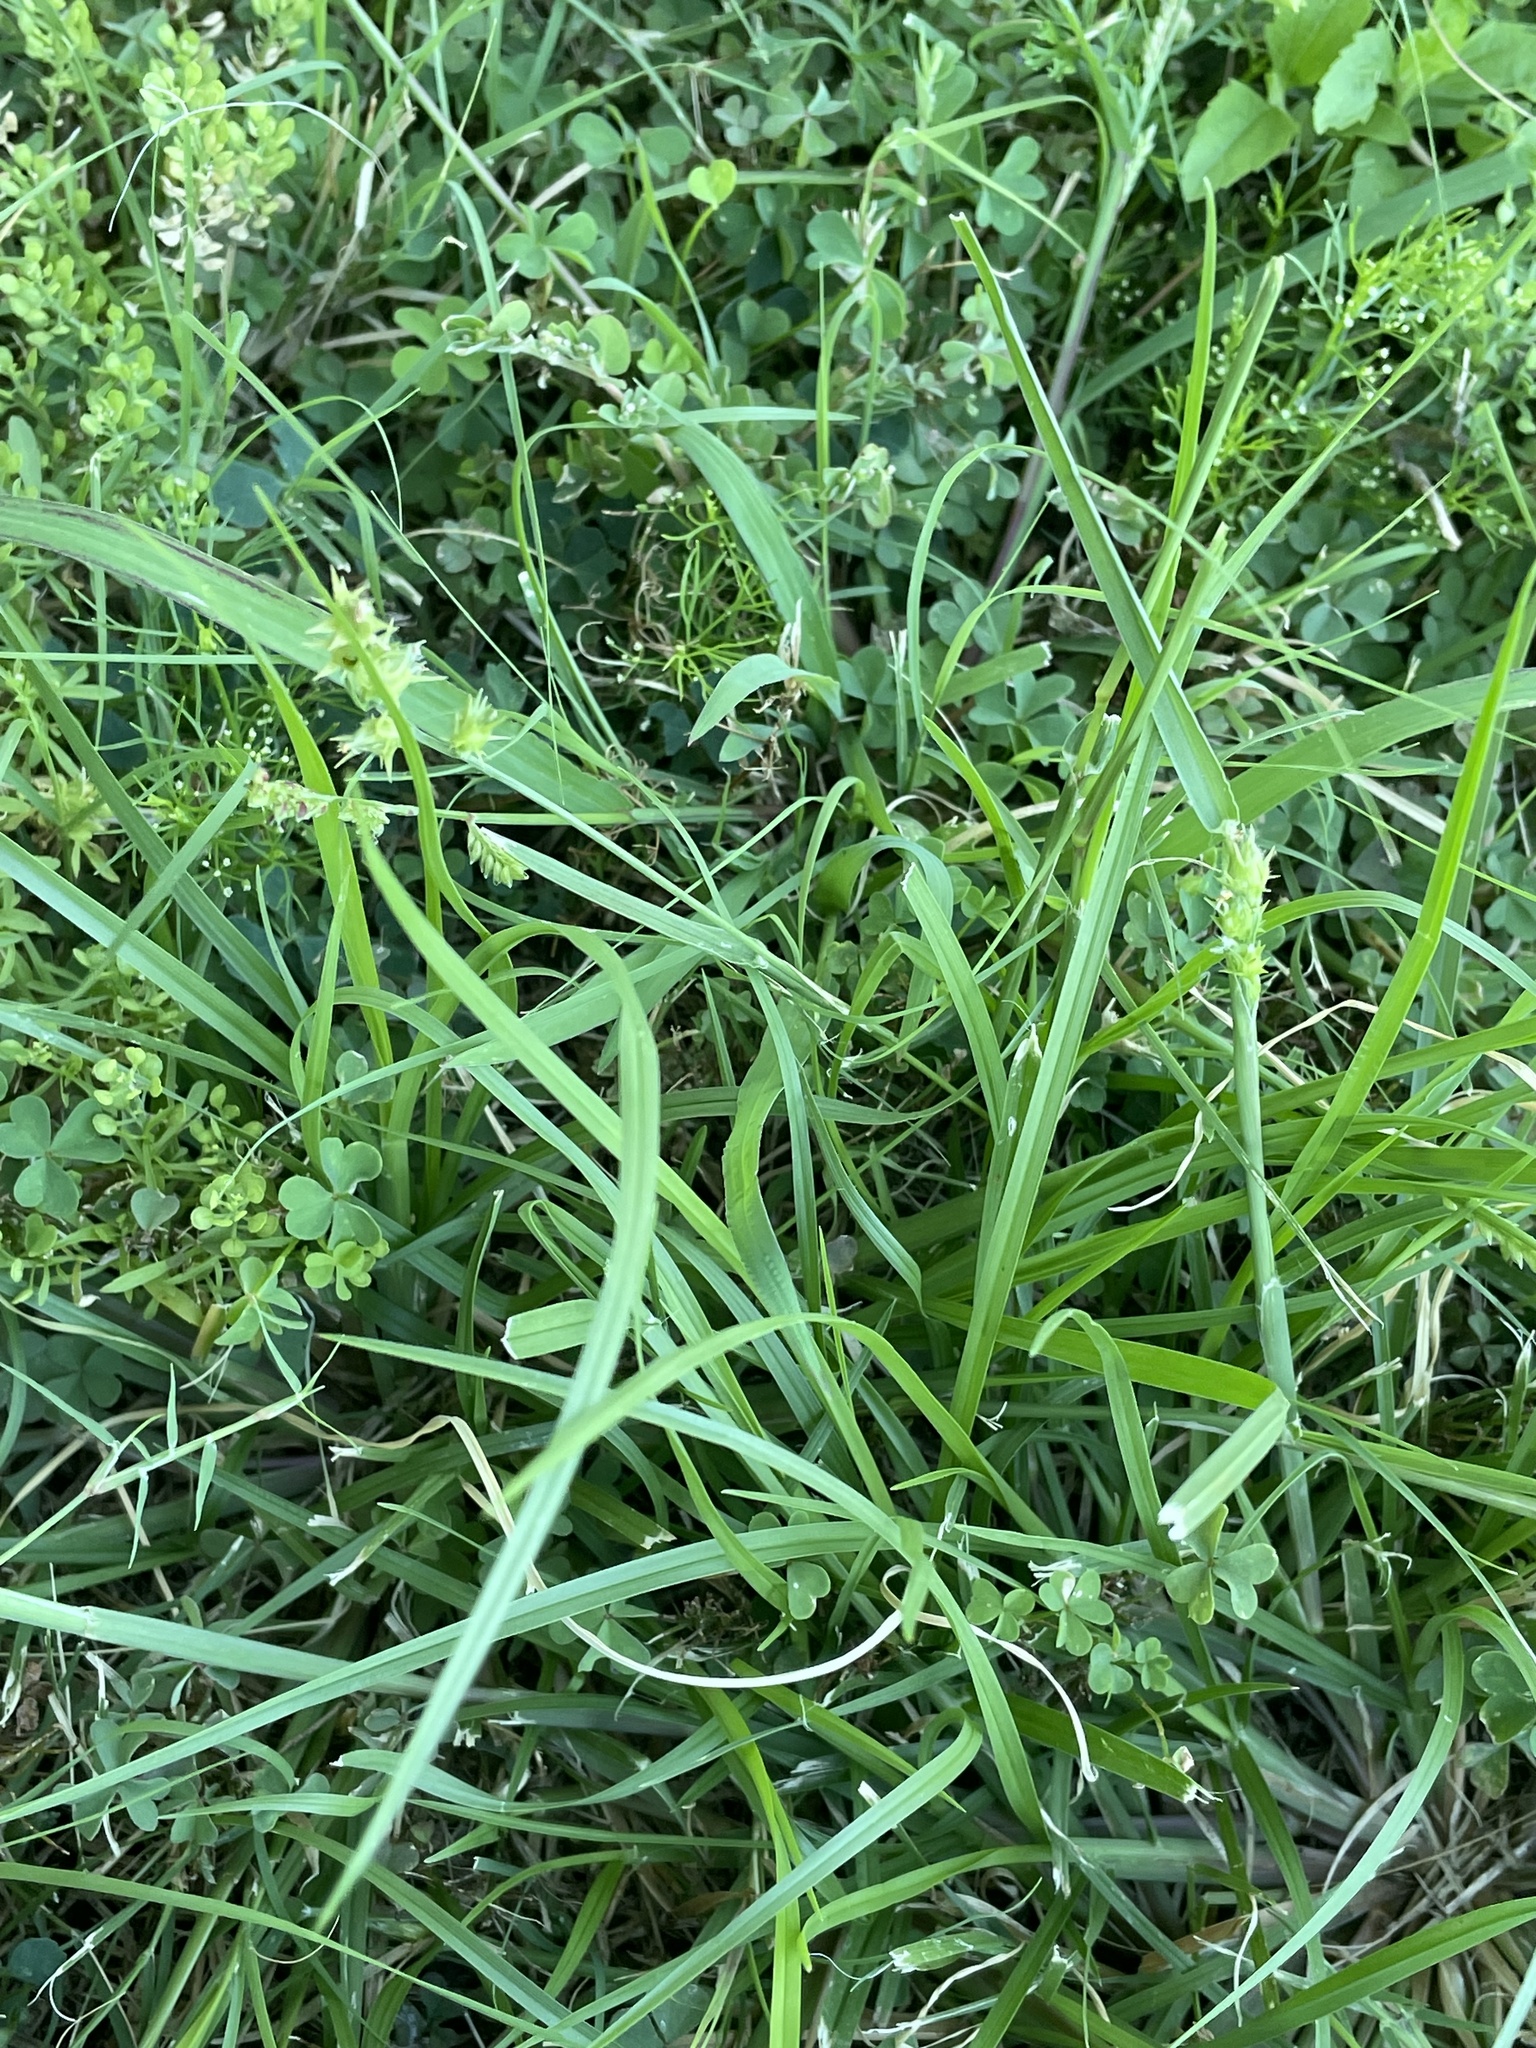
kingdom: Plantae
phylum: Tracheophyta
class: Liliopsida
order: Poales
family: Poaceae
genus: Cenchrus
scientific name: Cenchrus spinifex
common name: Coast sandbur
